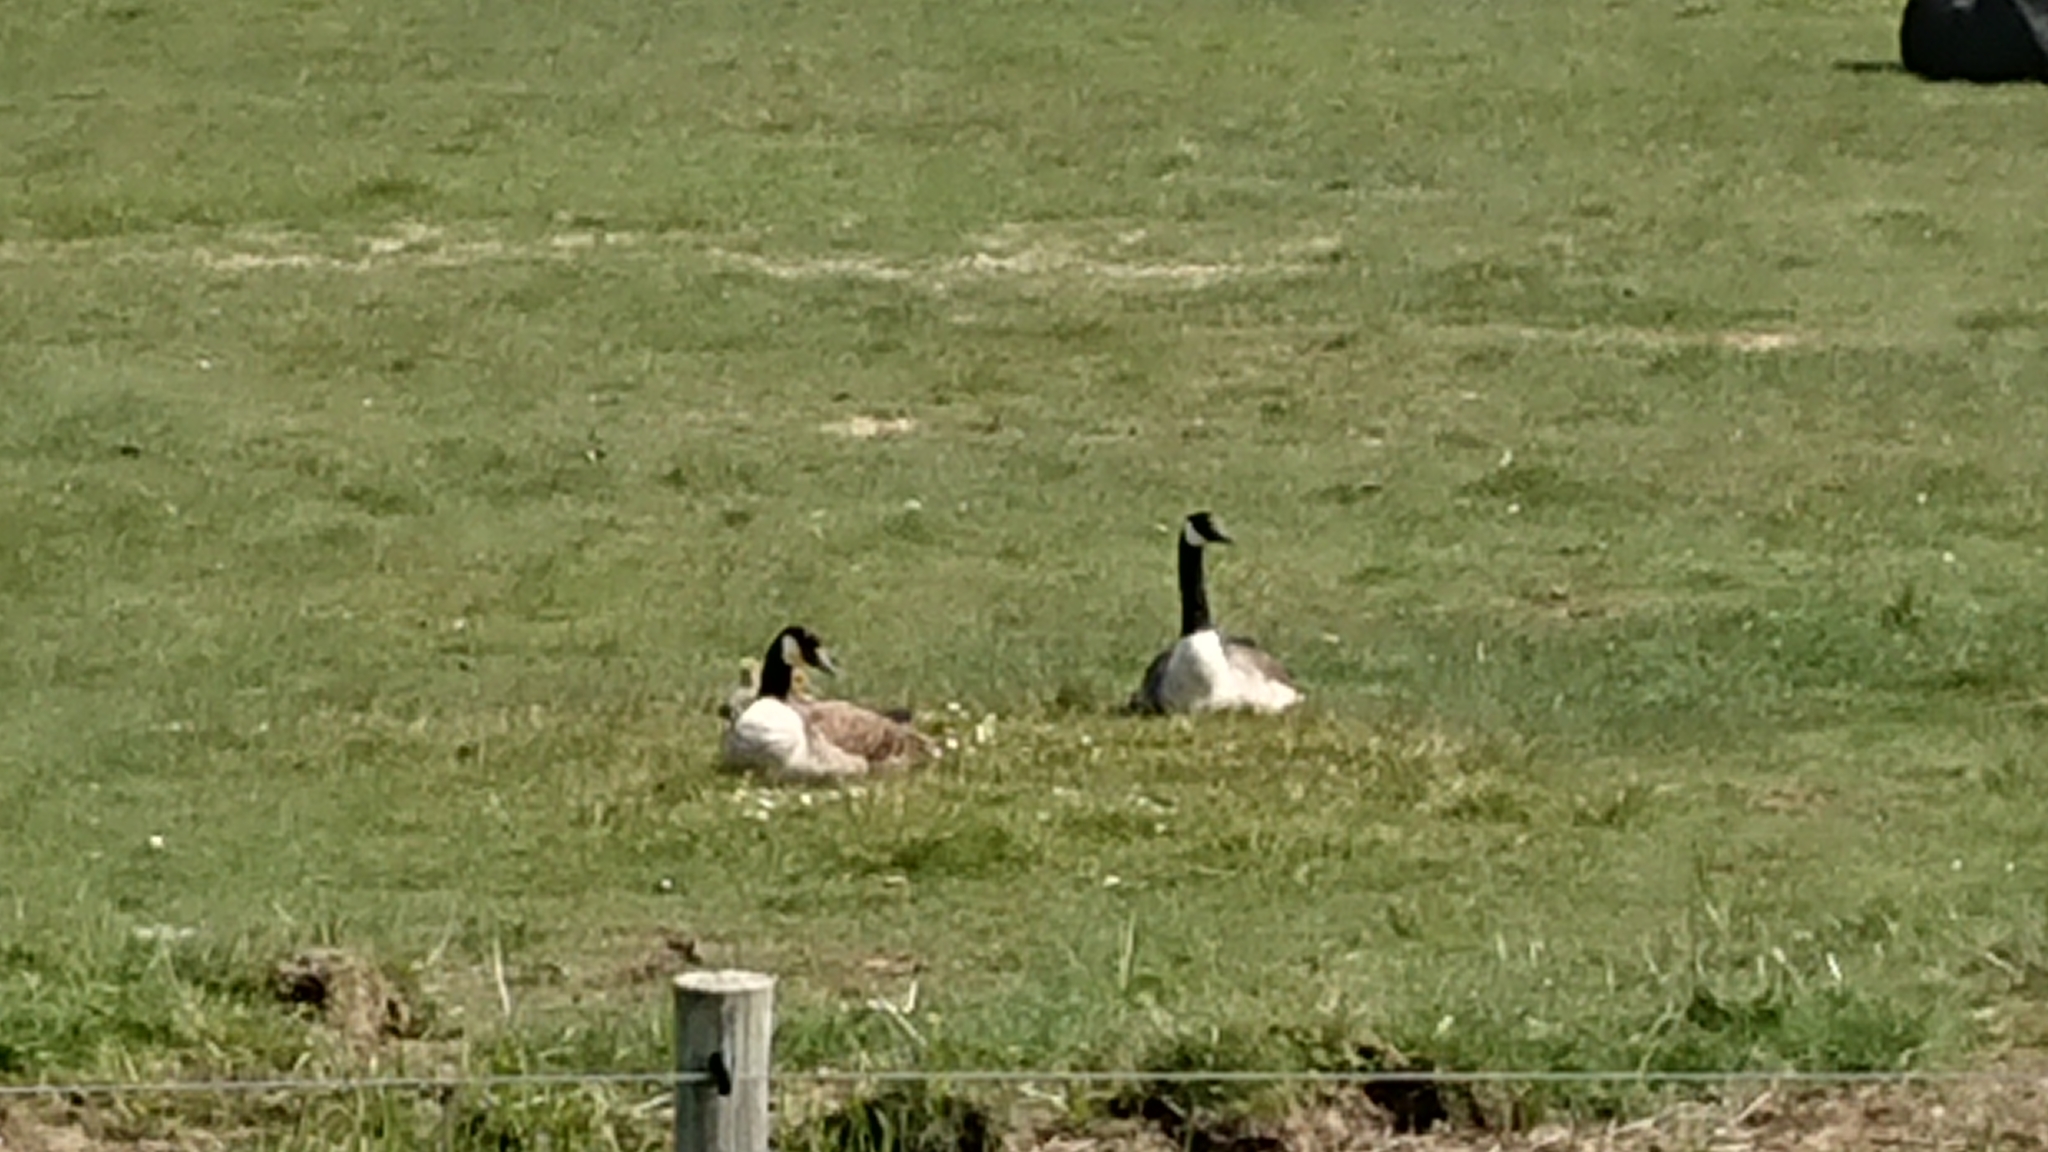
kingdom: Animalia
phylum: Chordata
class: Aves
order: Anseriformes
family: Anatidae
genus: Branta
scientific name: Branta canadensis
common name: Canada goose
